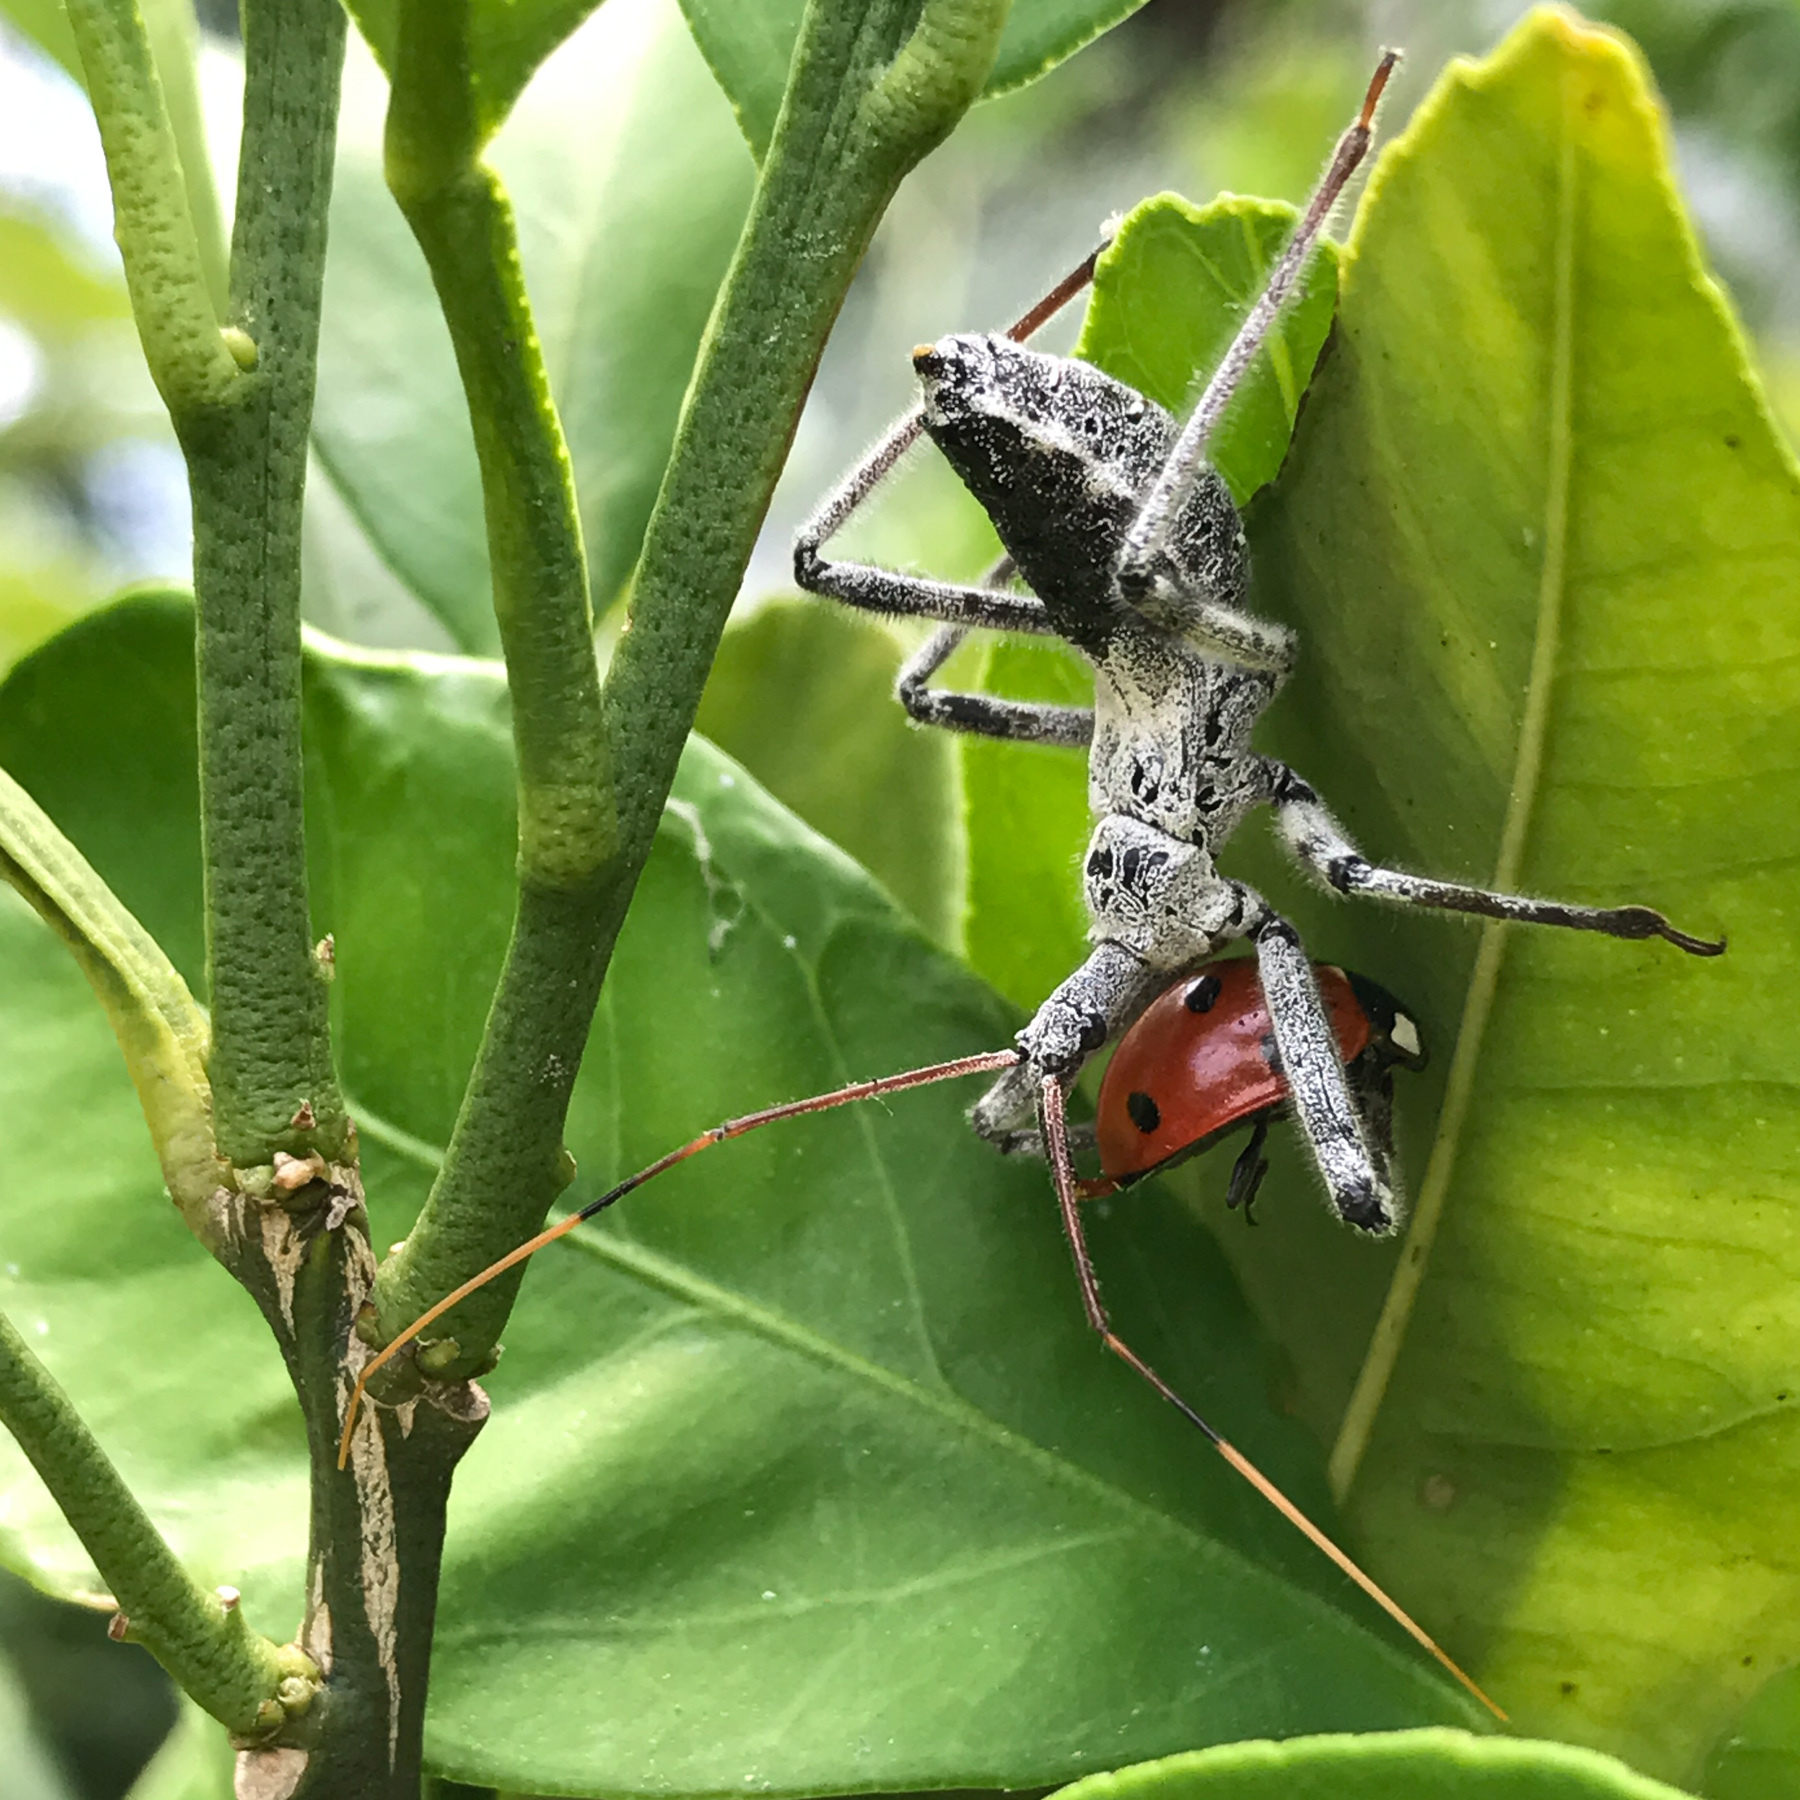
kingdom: Animalia
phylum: Arthropoda
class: Insecta
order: Hemiptera
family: Reduviidae
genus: Arilus
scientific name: Arilus cristatus
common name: North american wheel bug
